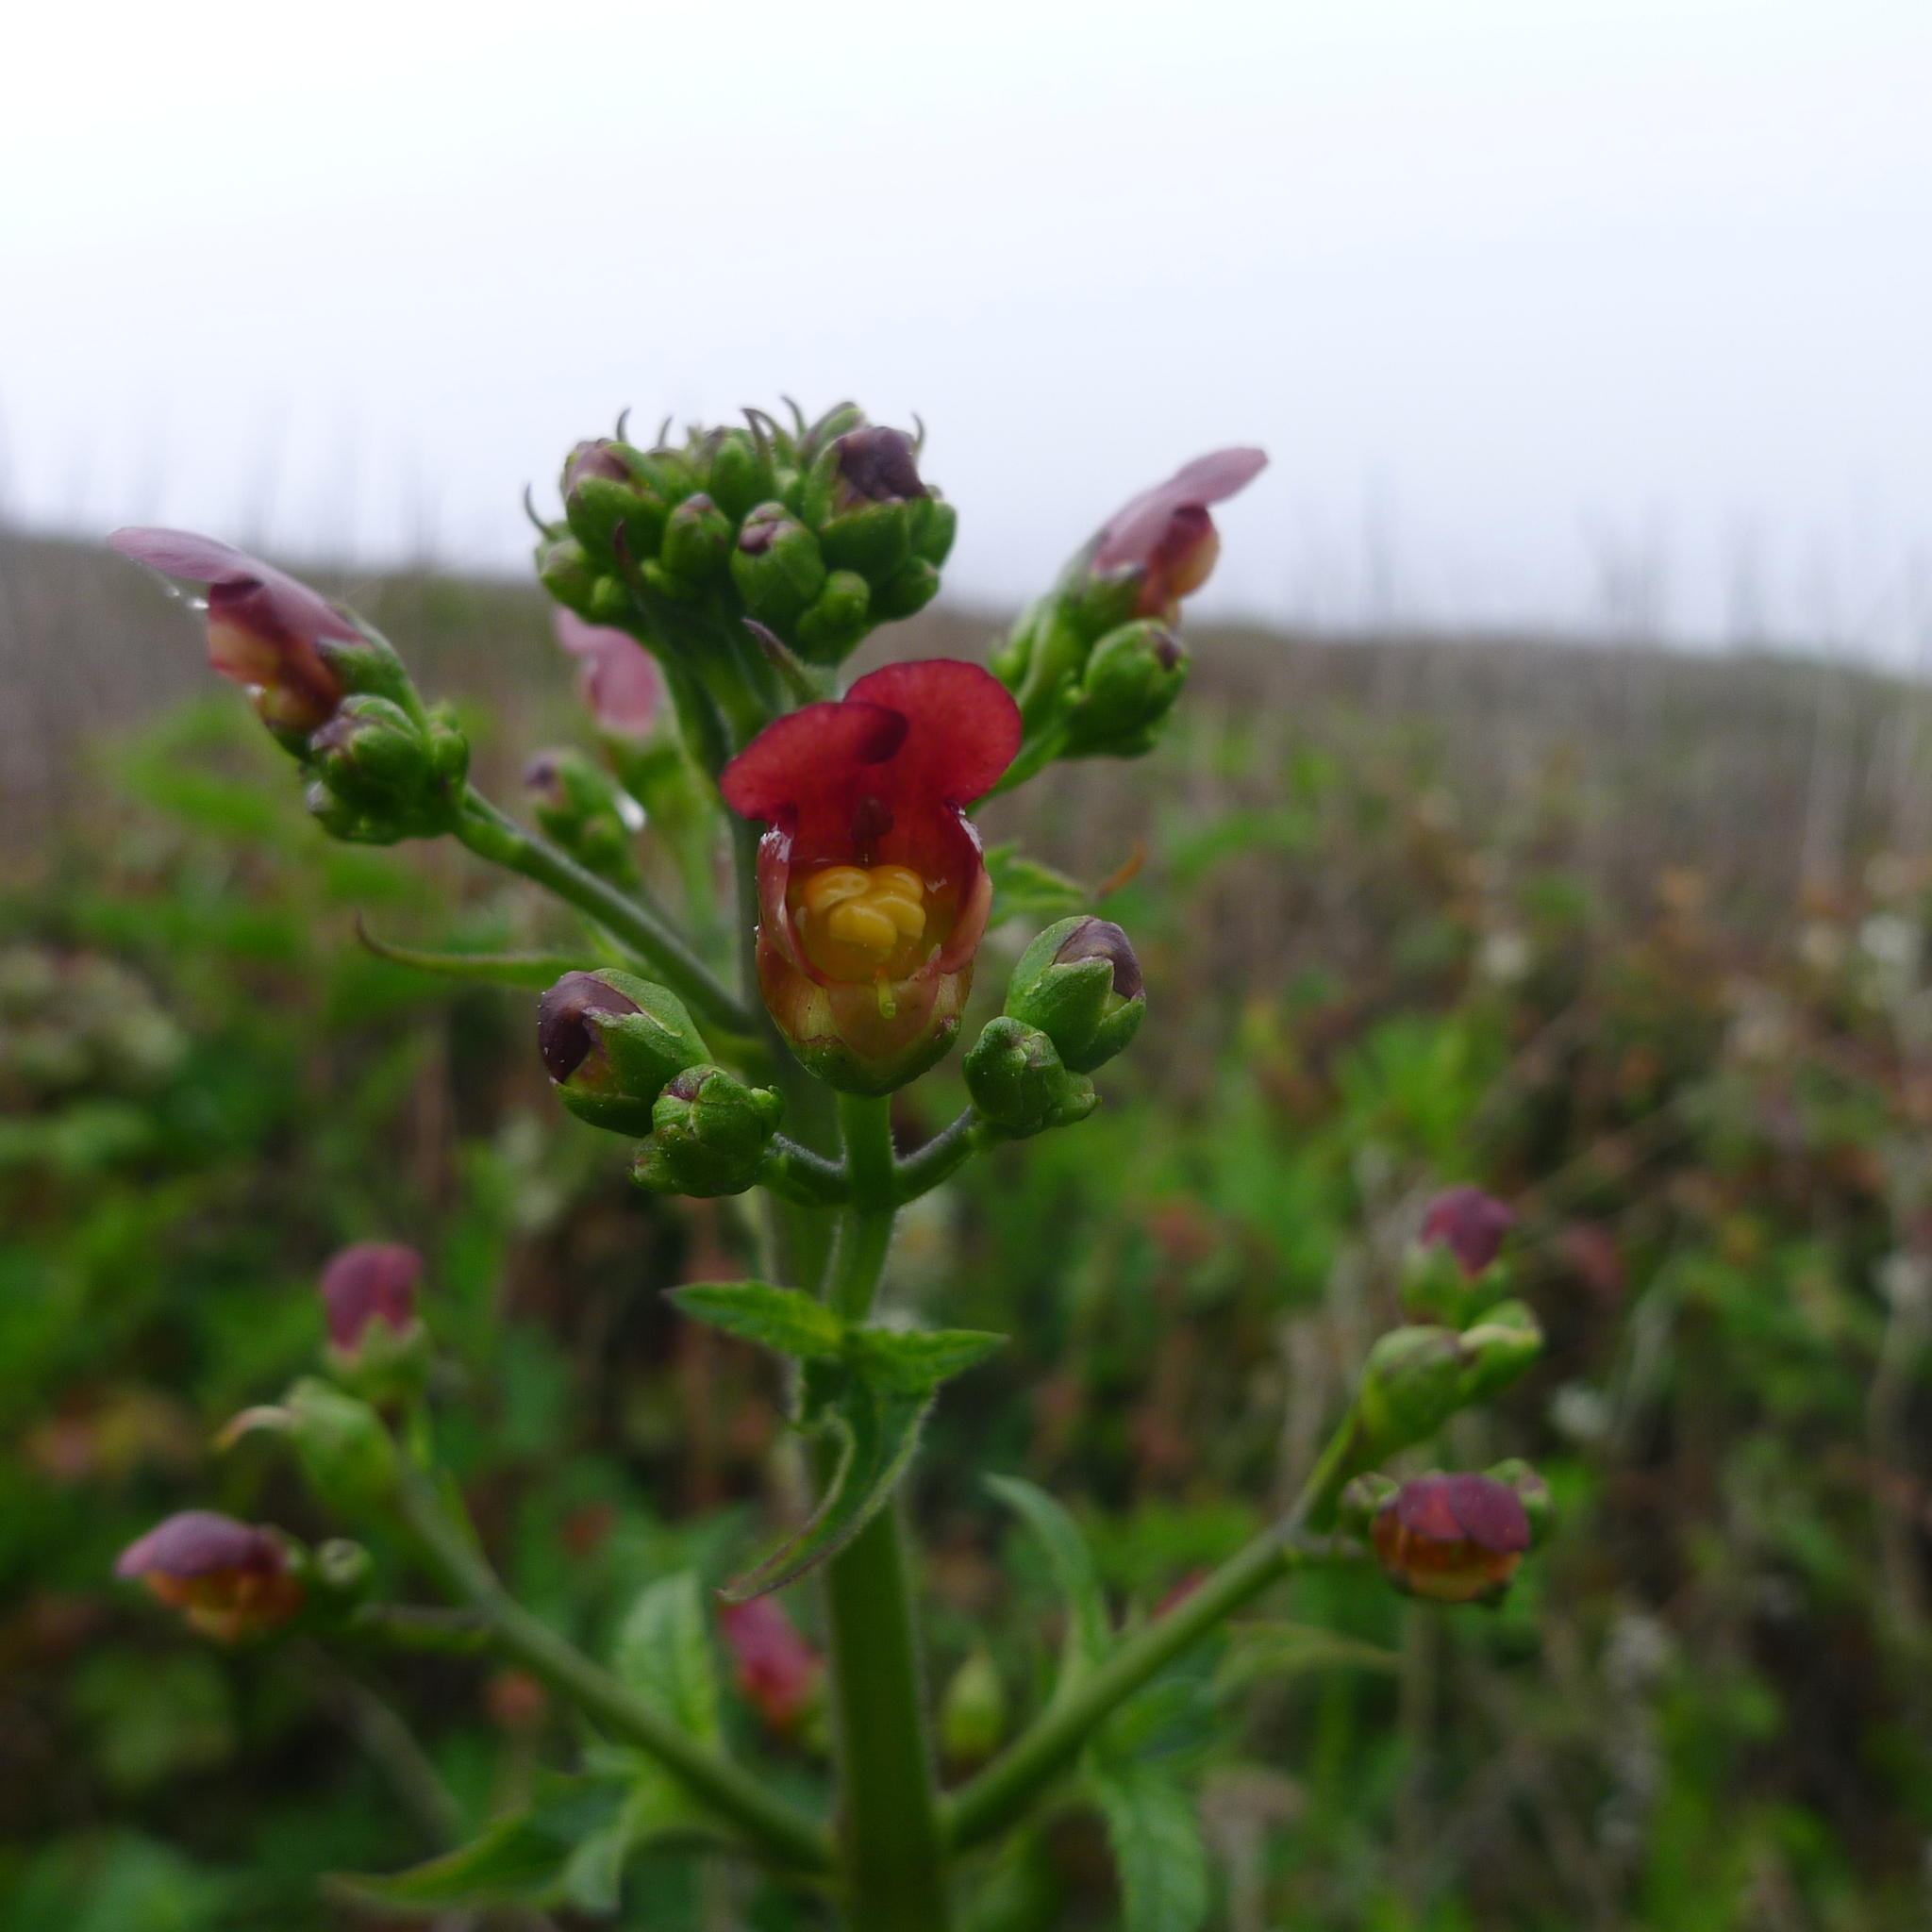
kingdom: Plantae
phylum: Tracheophyta
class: Magnoliopsida
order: Lamiales
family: Scrophulariaceae
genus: Scrophularia
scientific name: Scrophularia californica
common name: California figwort
